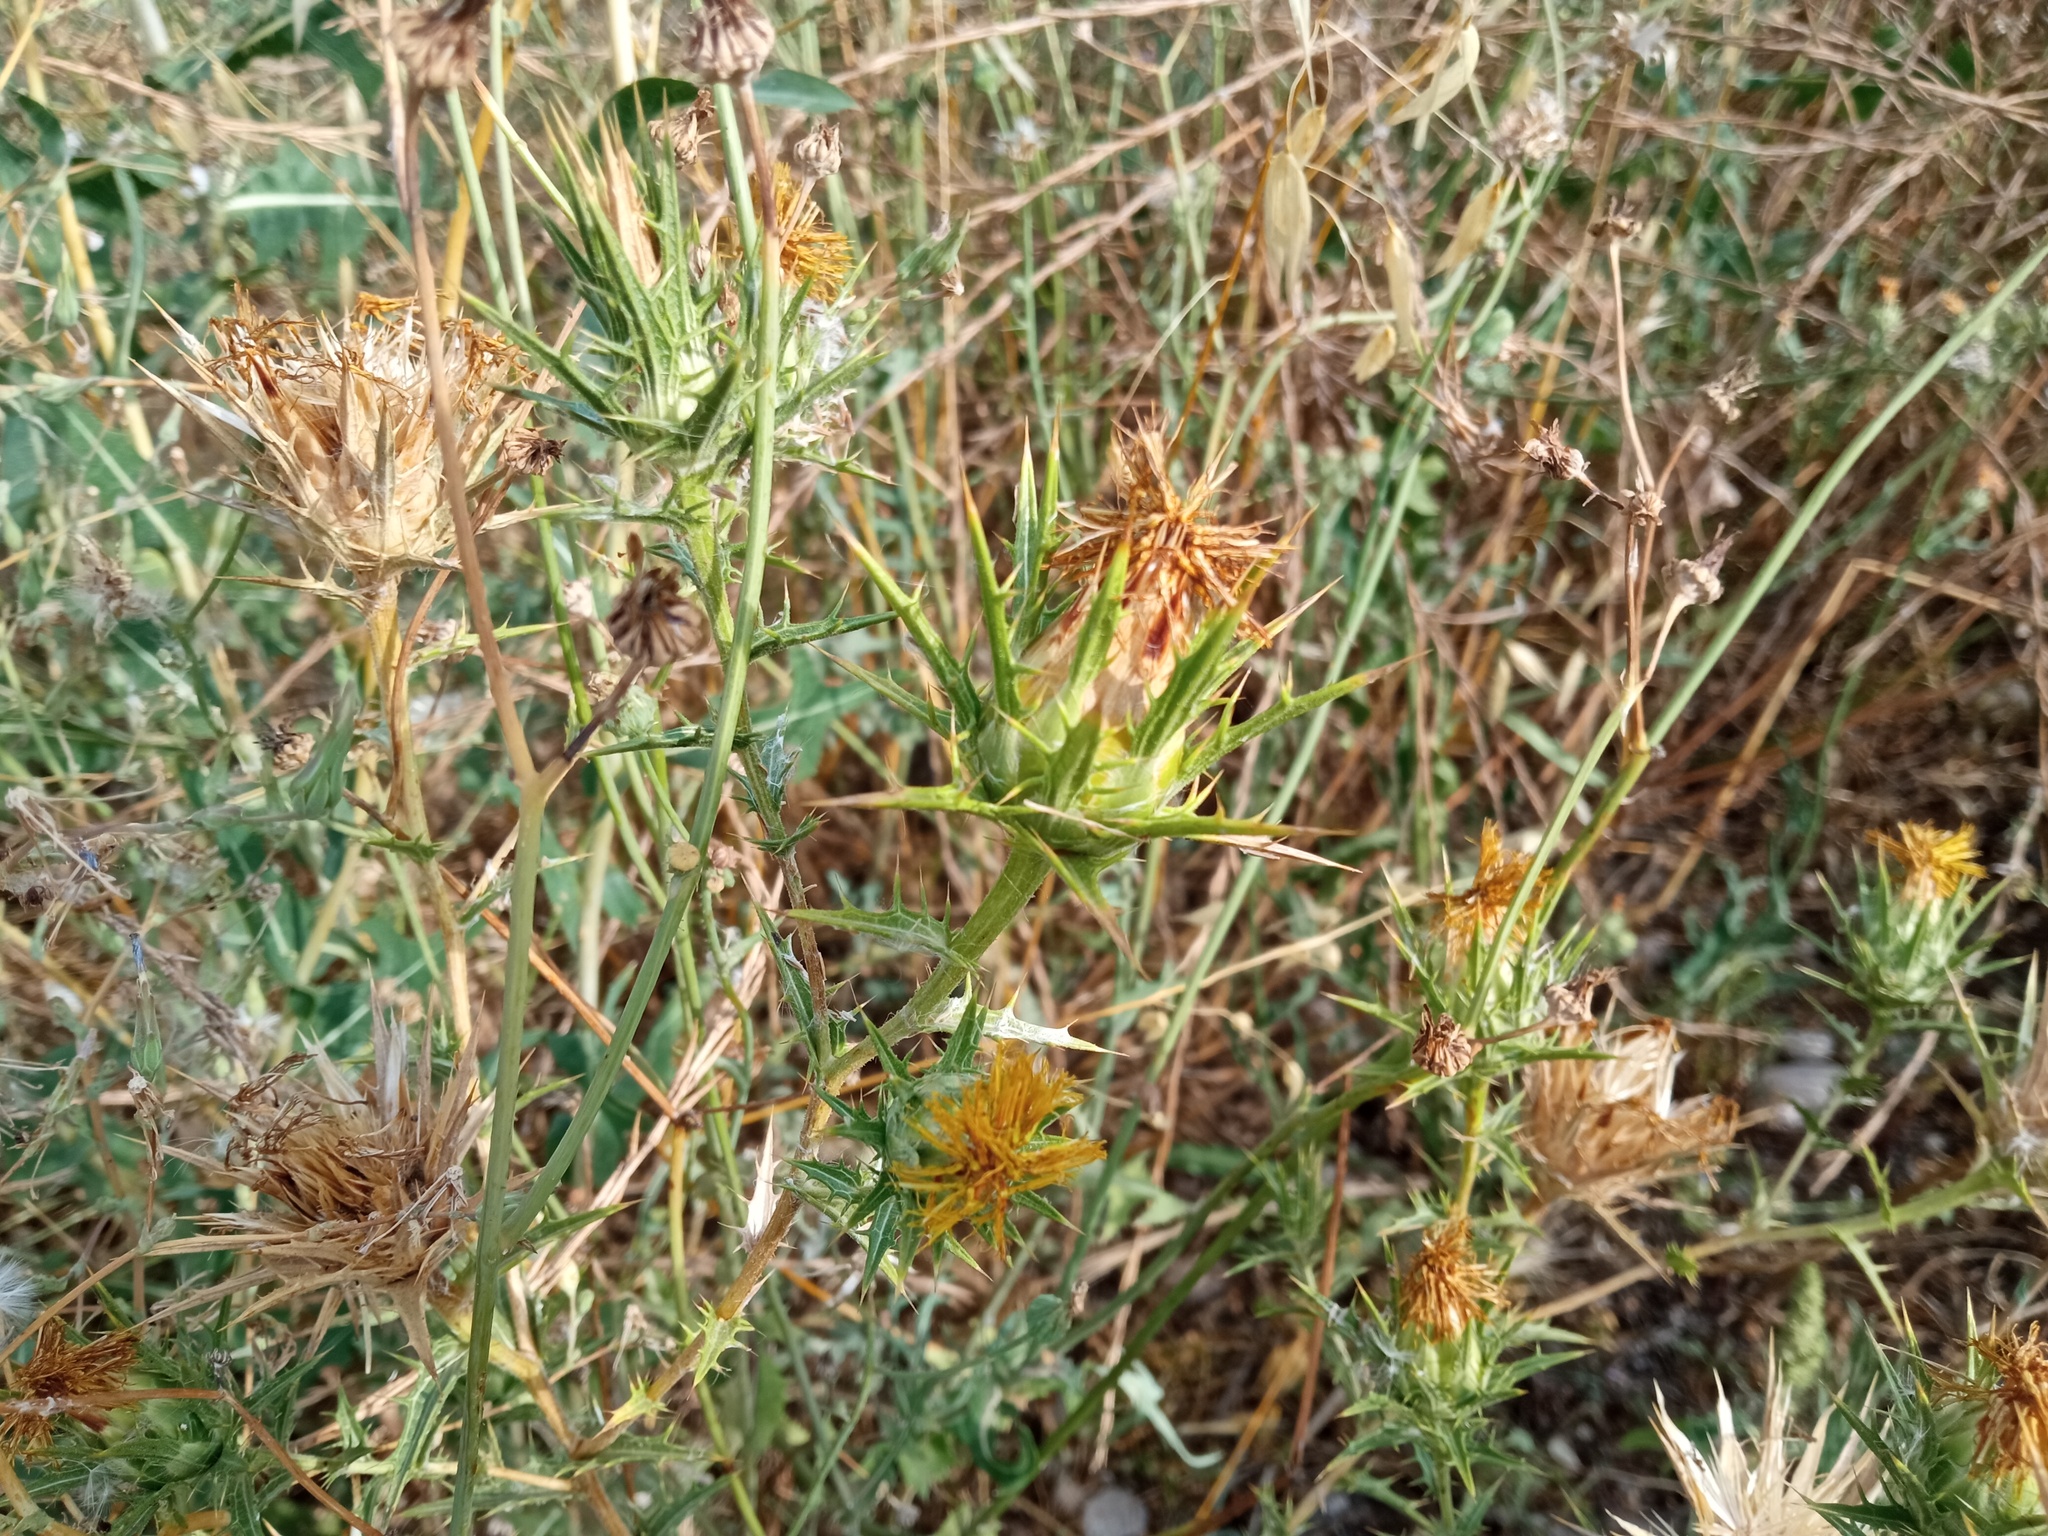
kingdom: Plantae
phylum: Tracheophyta
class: Magnoliopsida
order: Asterales
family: Asteraceae
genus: Carthamus
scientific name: Carthamus lanatus
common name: Downy safflower
